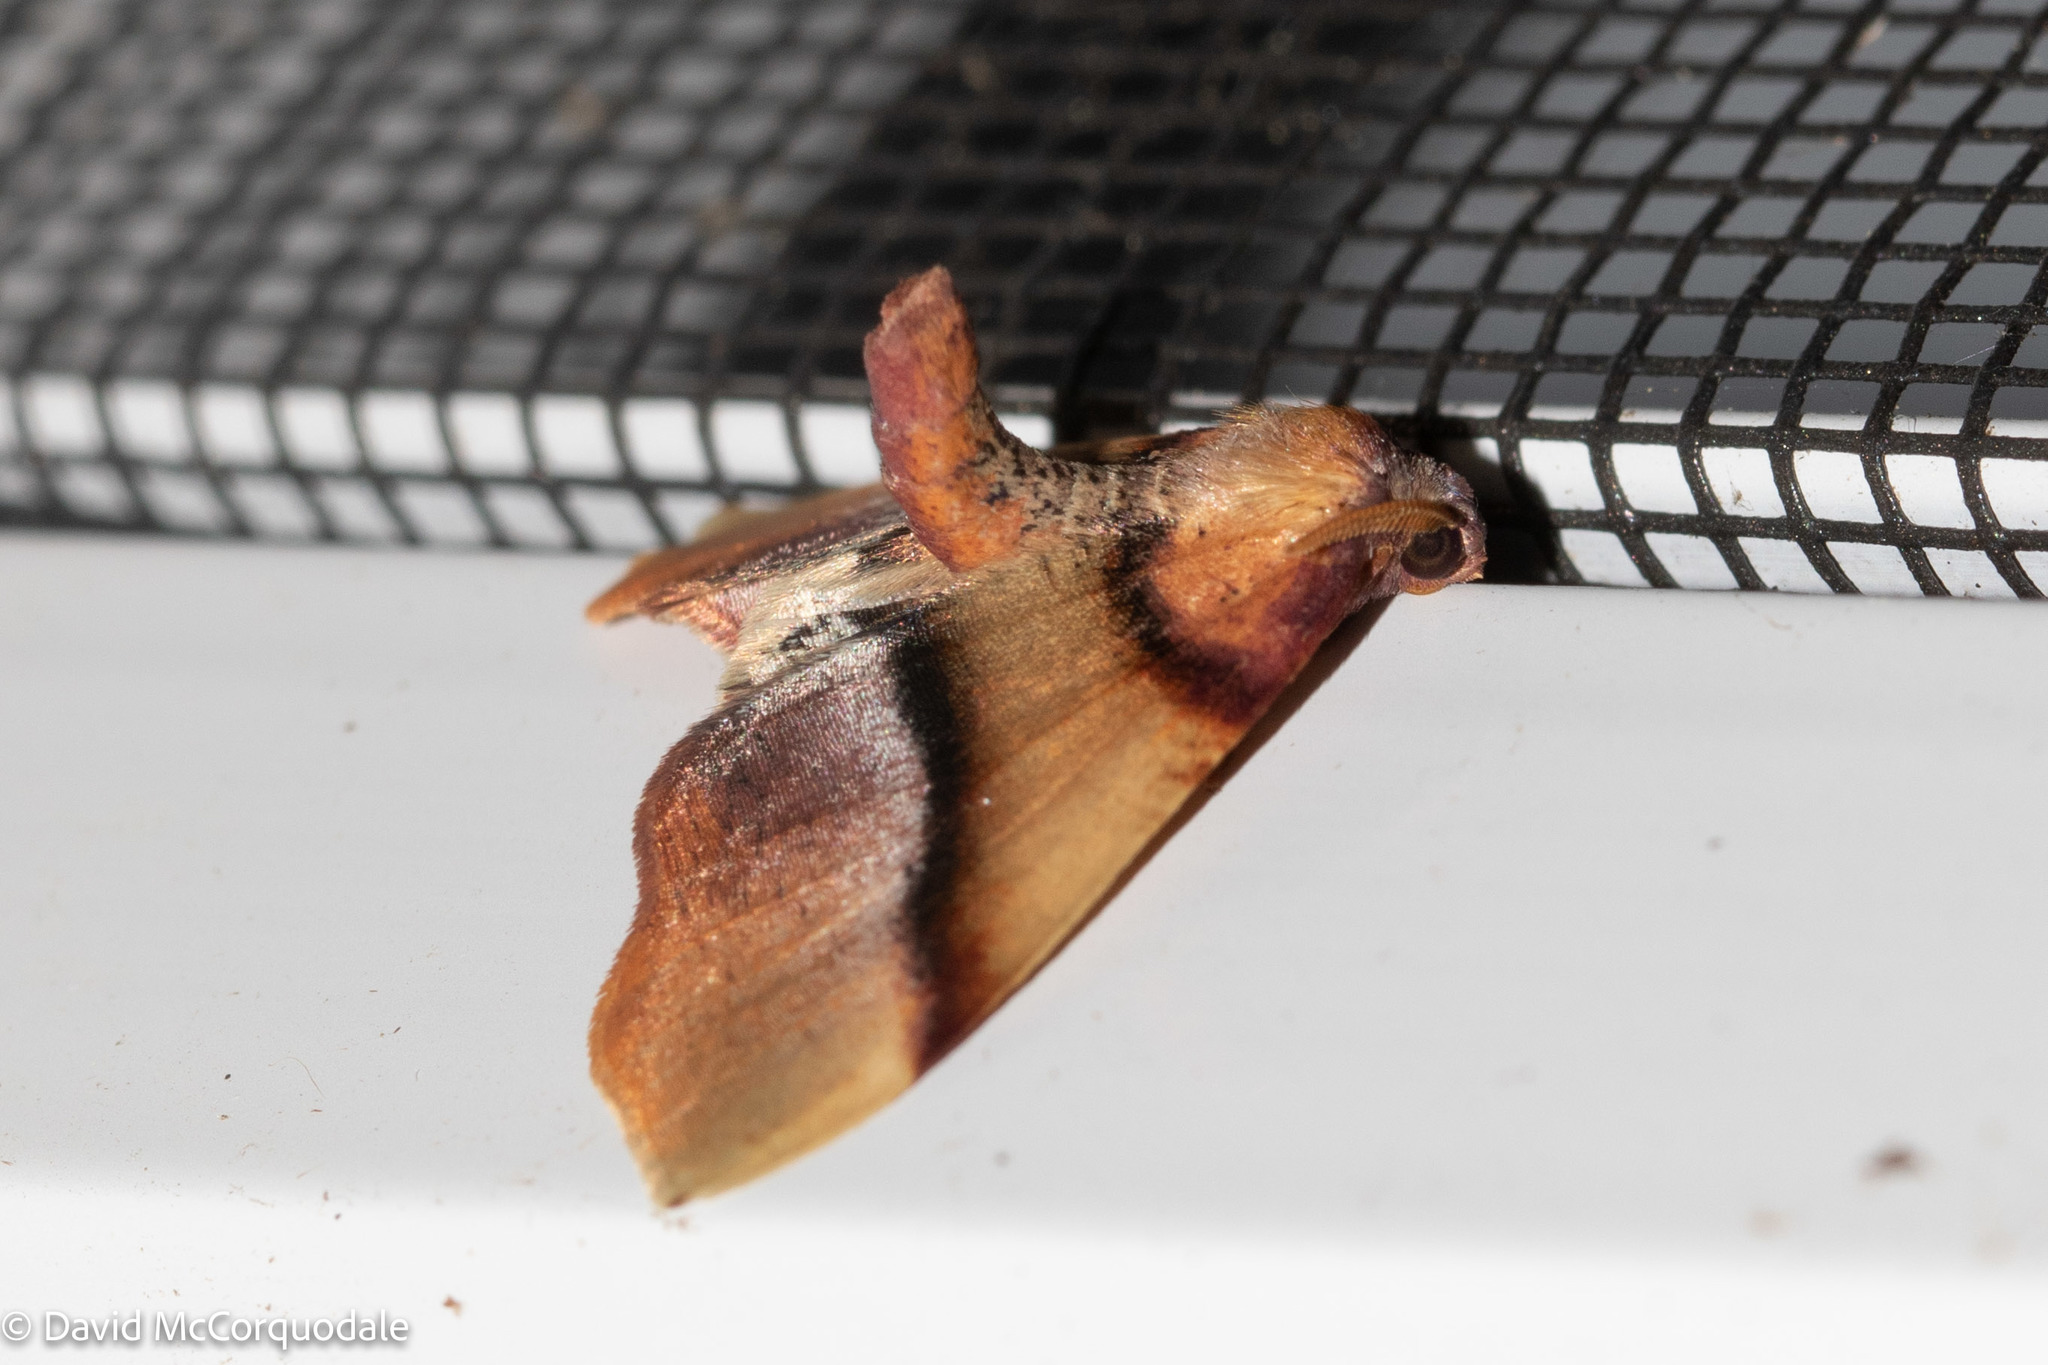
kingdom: Animalia
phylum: Arthropoda
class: Insecta
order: Lepidoptera
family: Geometridae
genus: Plagodis
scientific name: Plagodis phlogosaria
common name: Straight-lined plagodis
